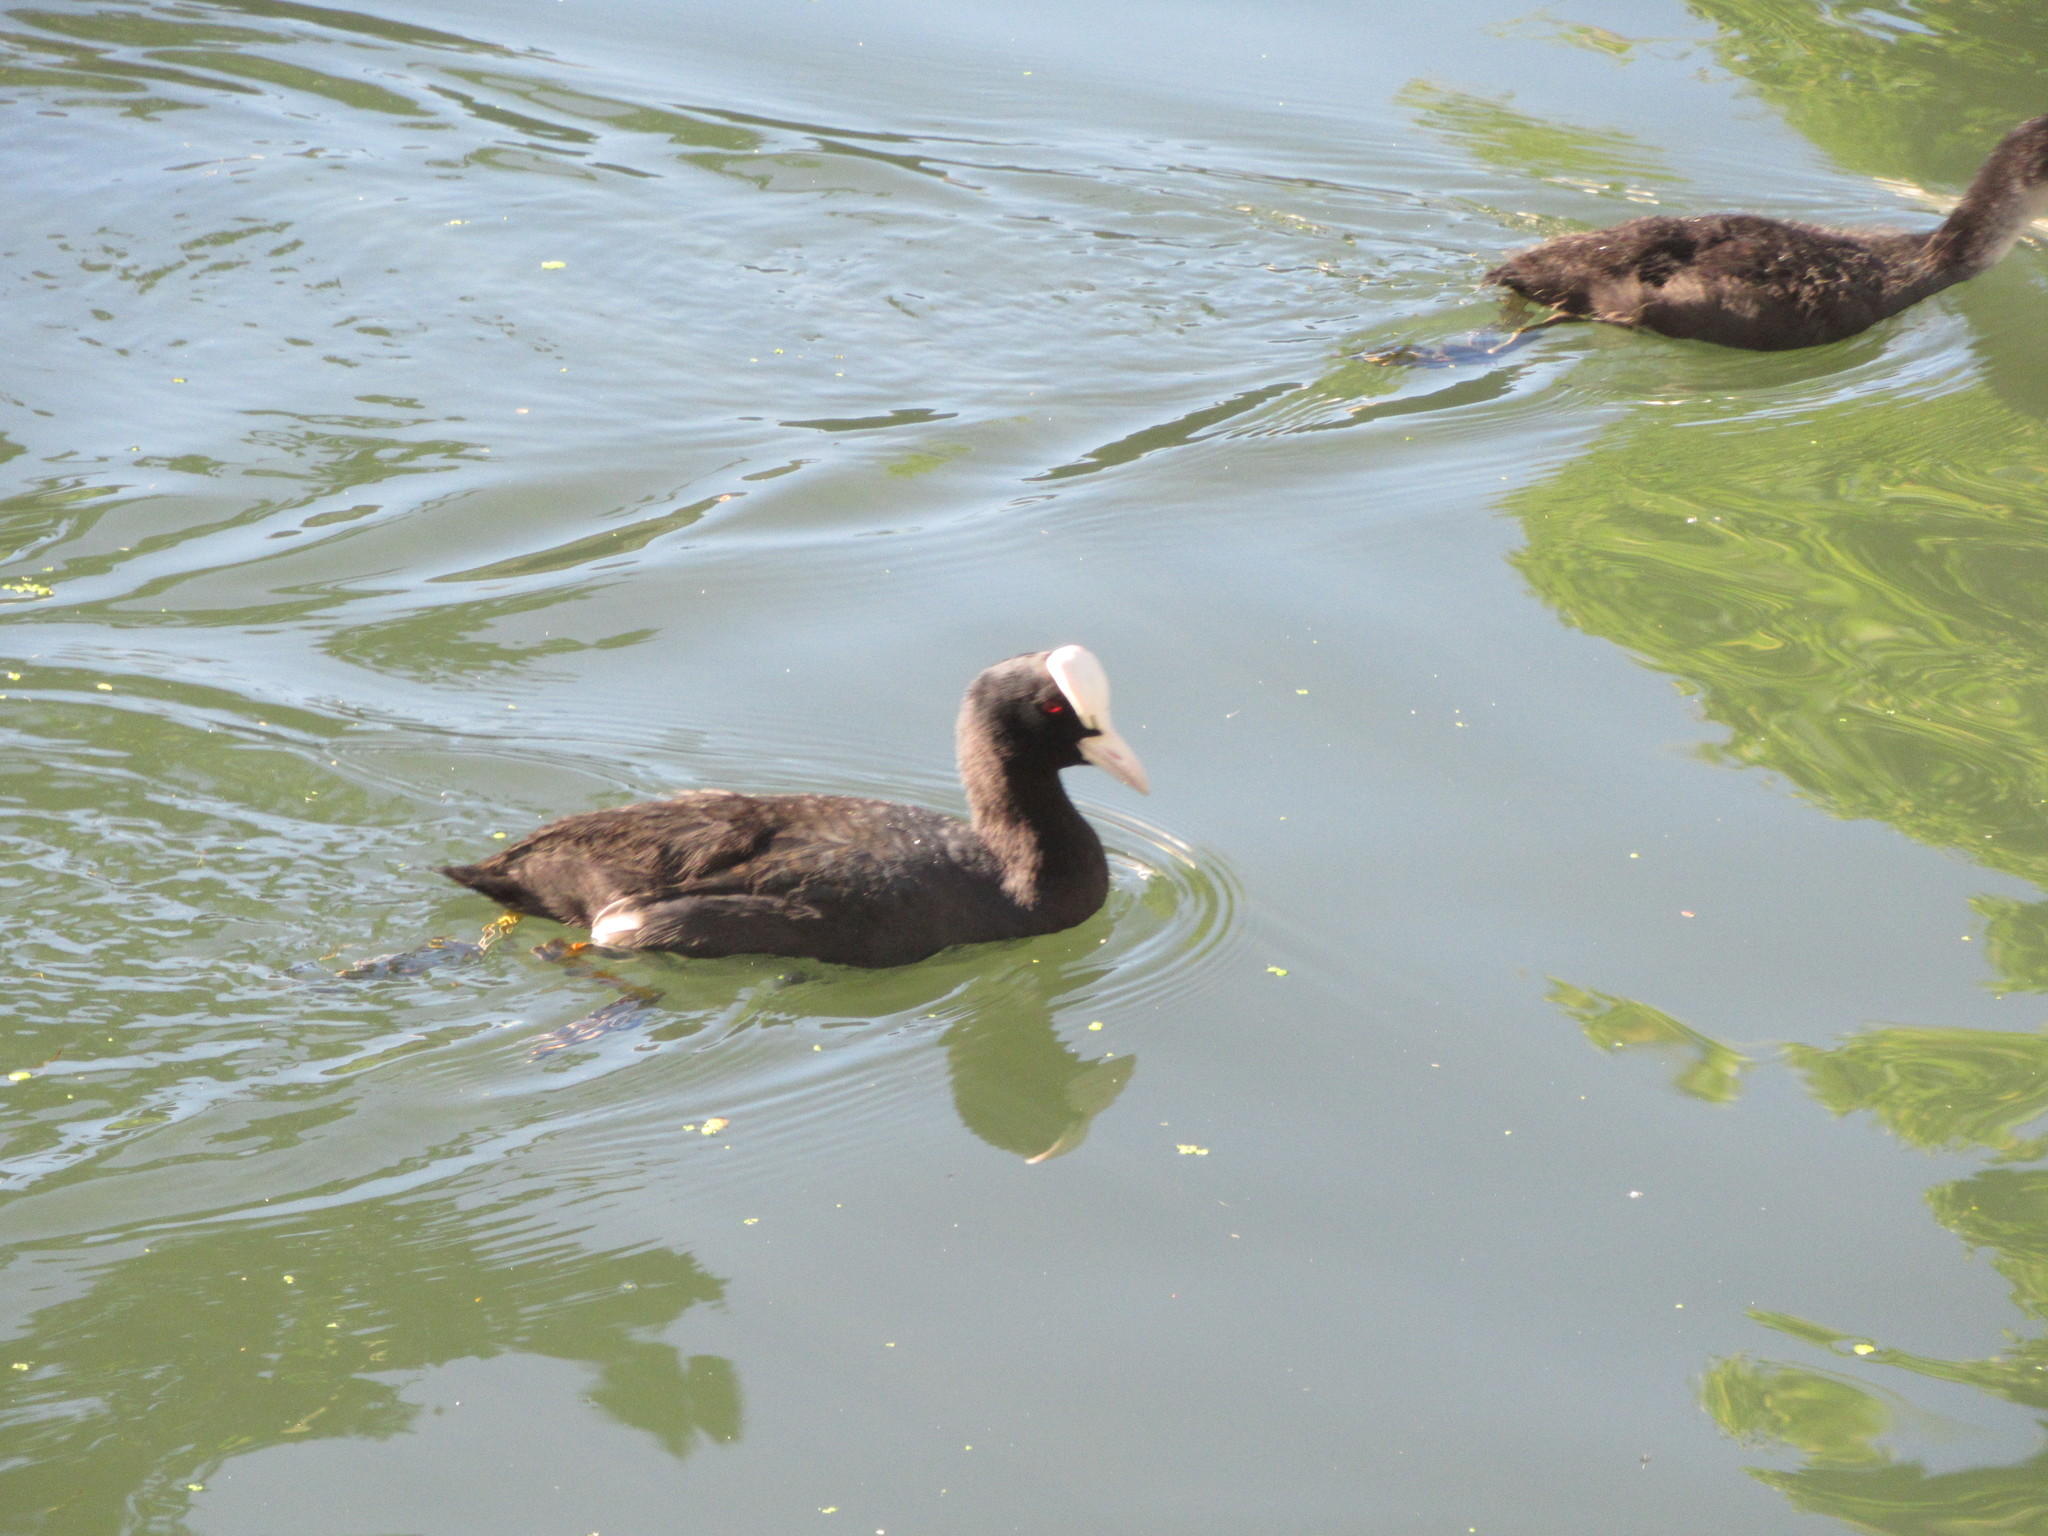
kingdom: Animalia
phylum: Chordata
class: Aves
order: Gruiformes
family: Rallidae
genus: Fulica
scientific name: Fulica atra
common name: Eurasian coot
